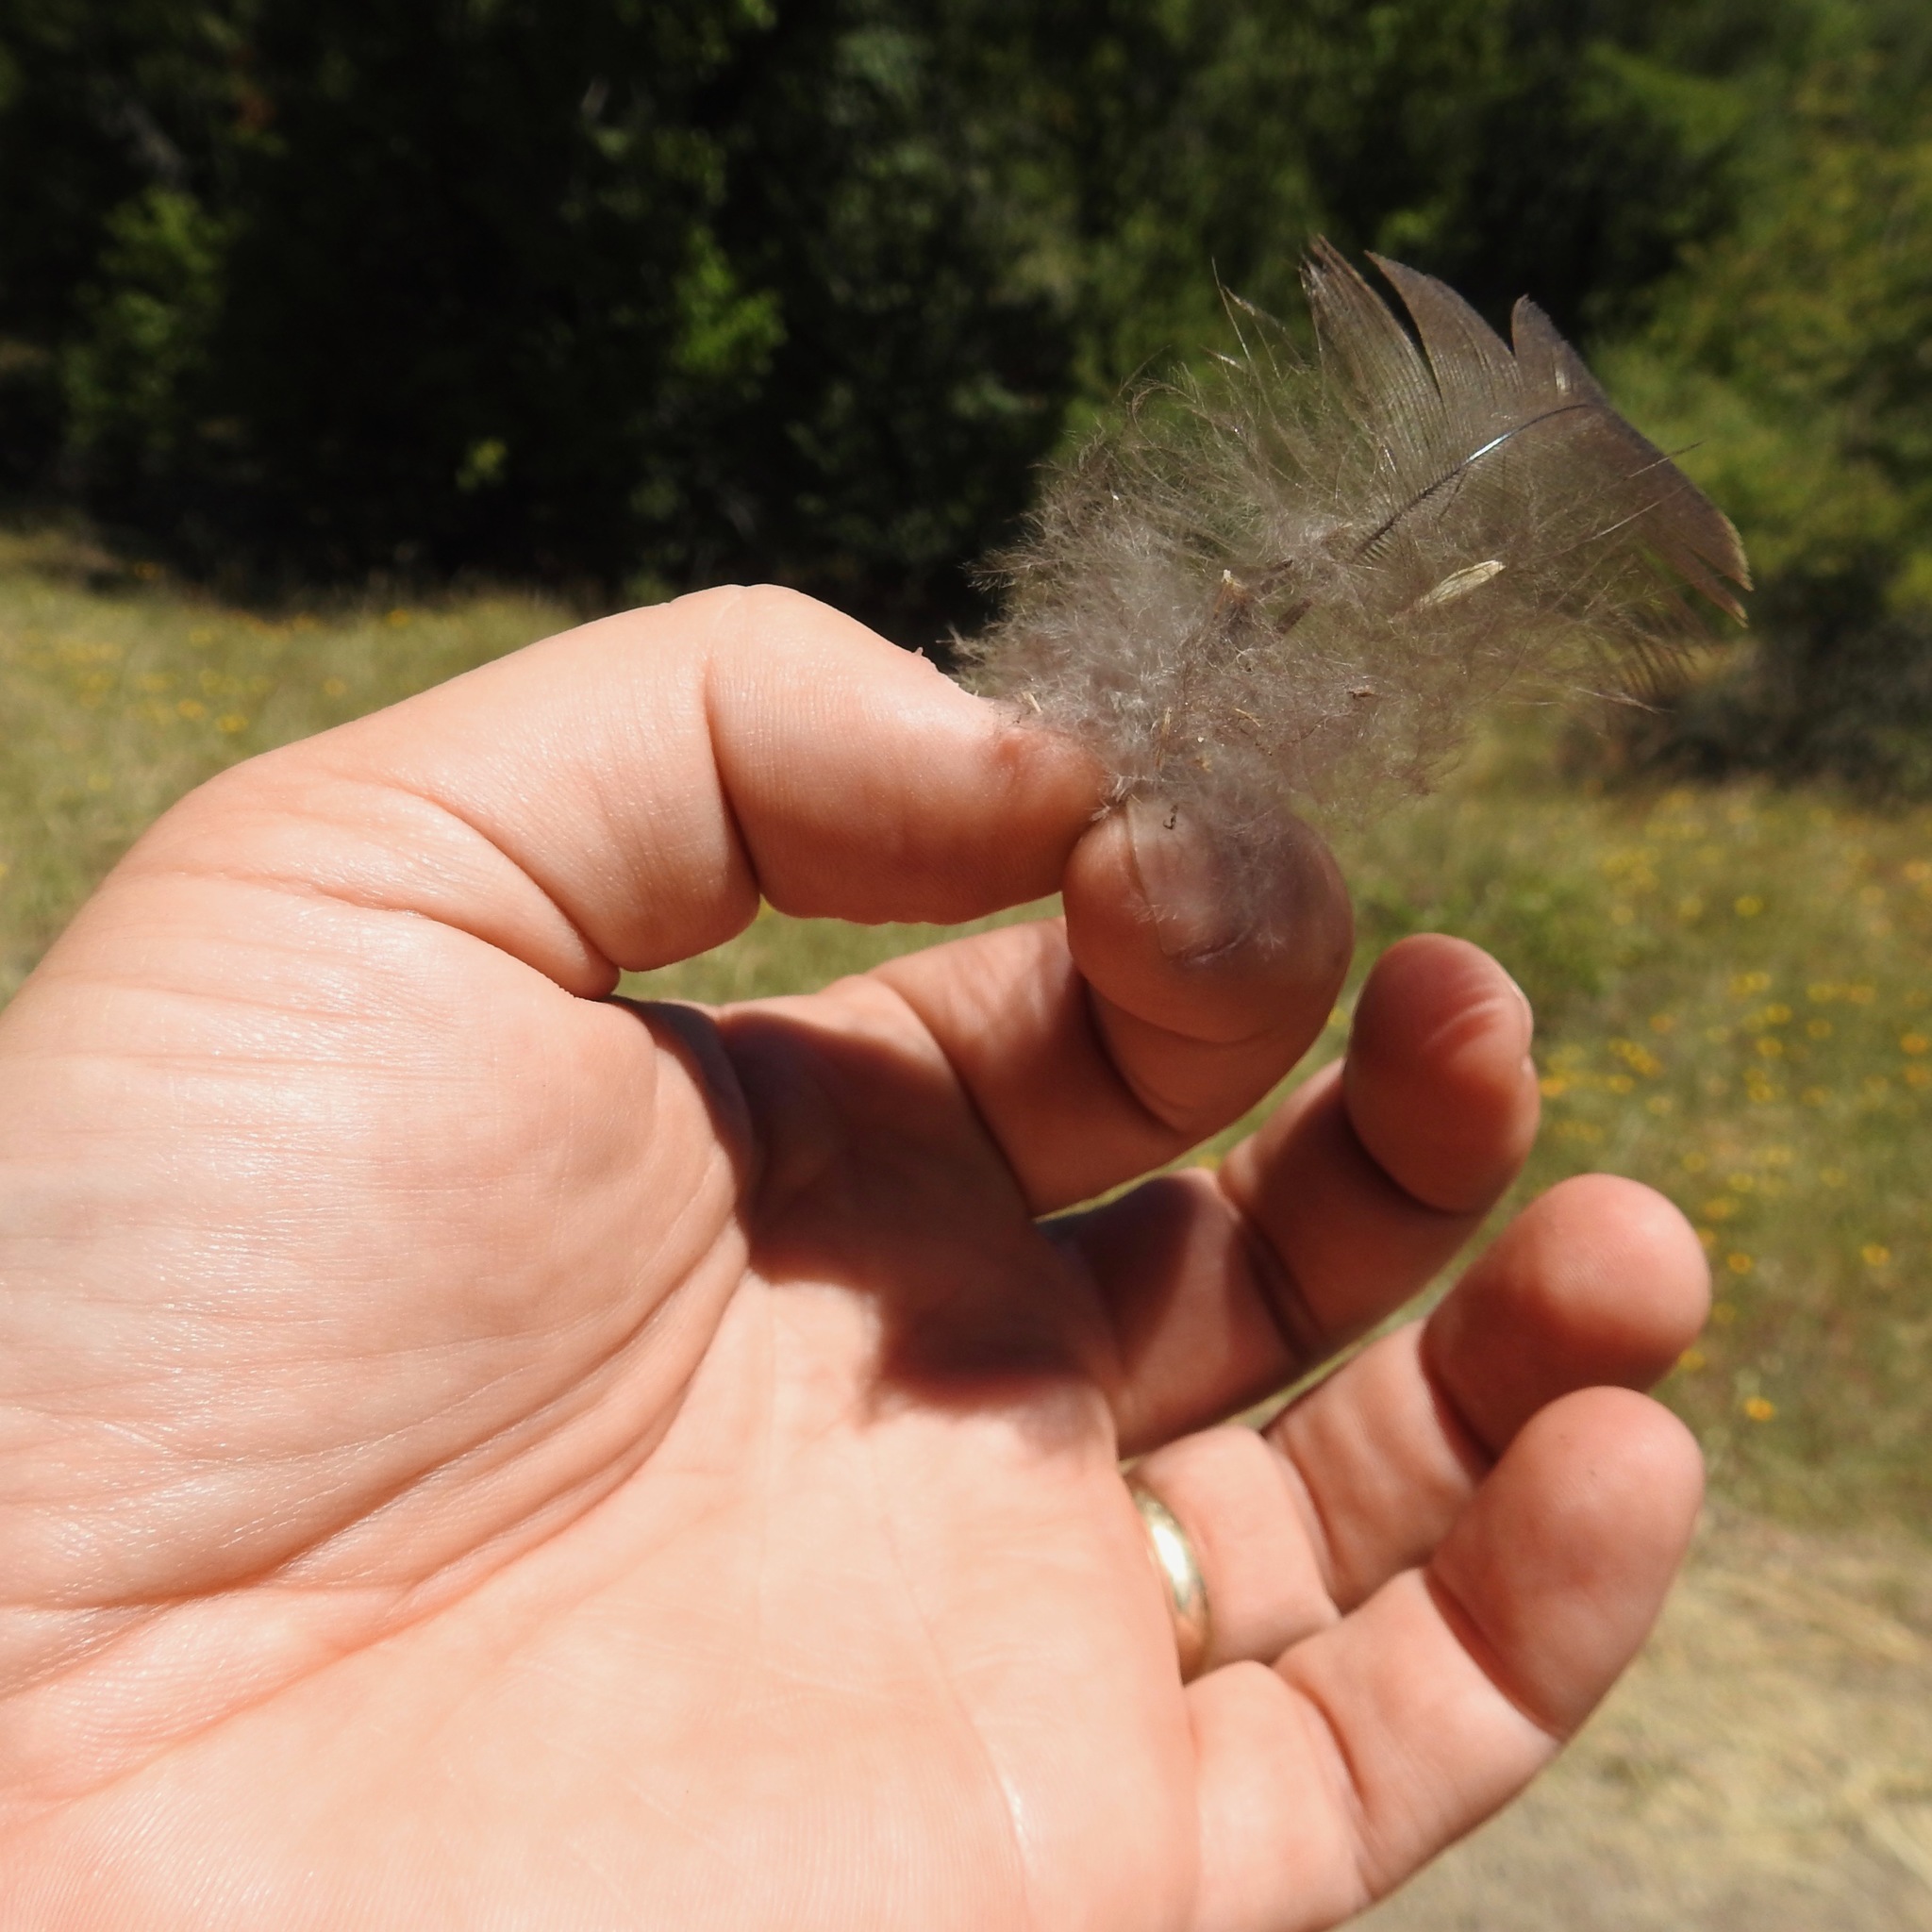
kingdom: Animalia
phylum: Chordata
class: Aves
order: Galliformes
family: Phasianidae
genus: Meleagris
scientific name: Meleagris gallopavo
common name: Wild turkey
